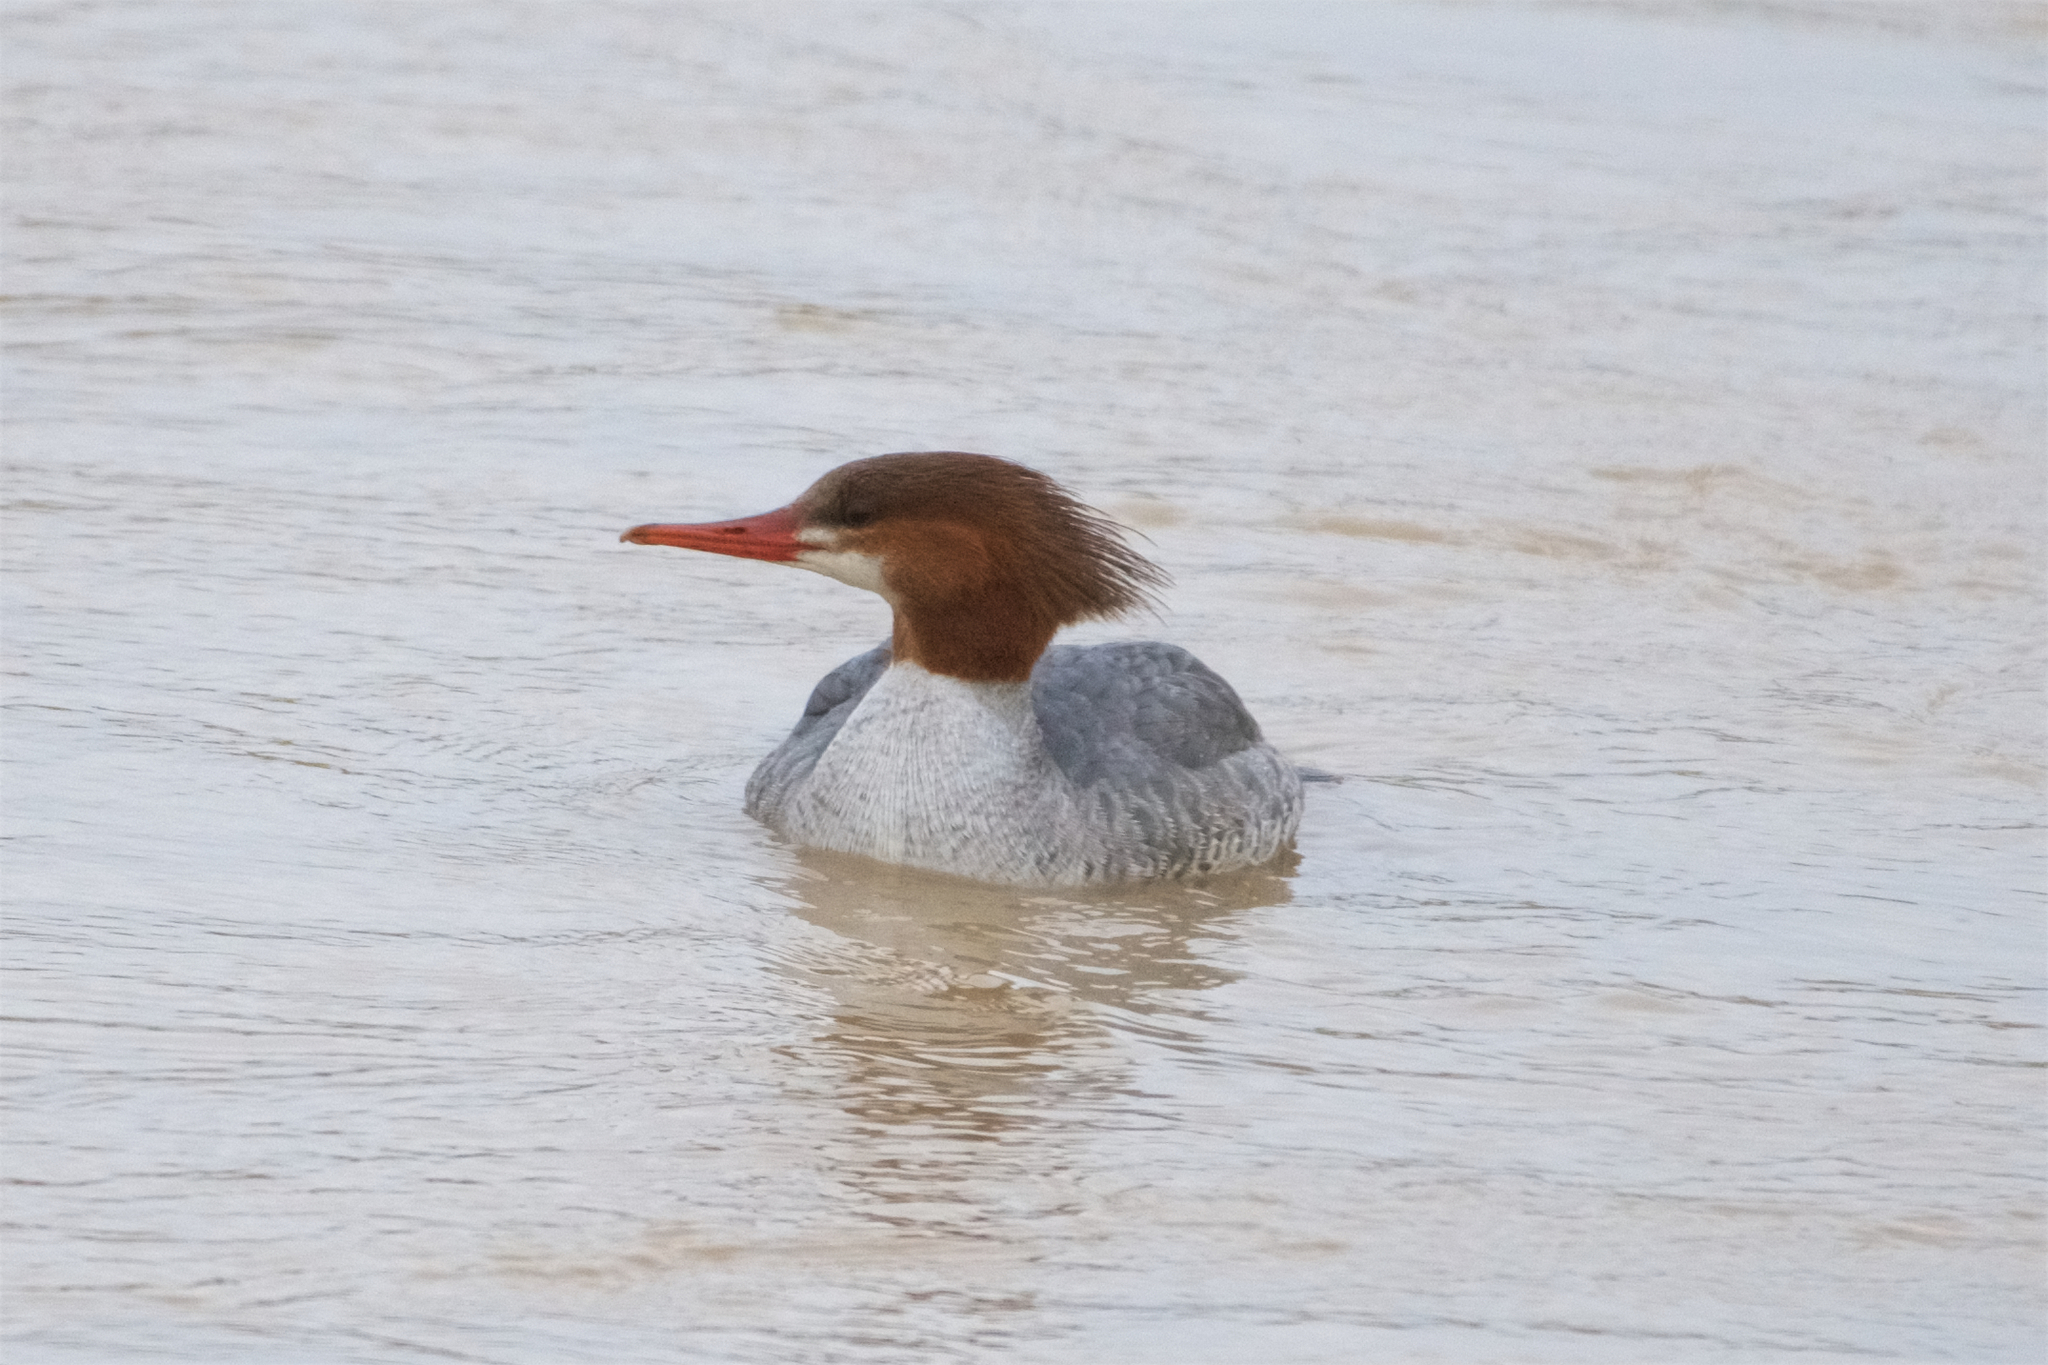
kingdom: Animalia
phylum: Chordata
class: Aves
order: Anseriformes
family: Anatidae
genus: Mergus
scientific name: Mergus merganser
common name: Common merganser
